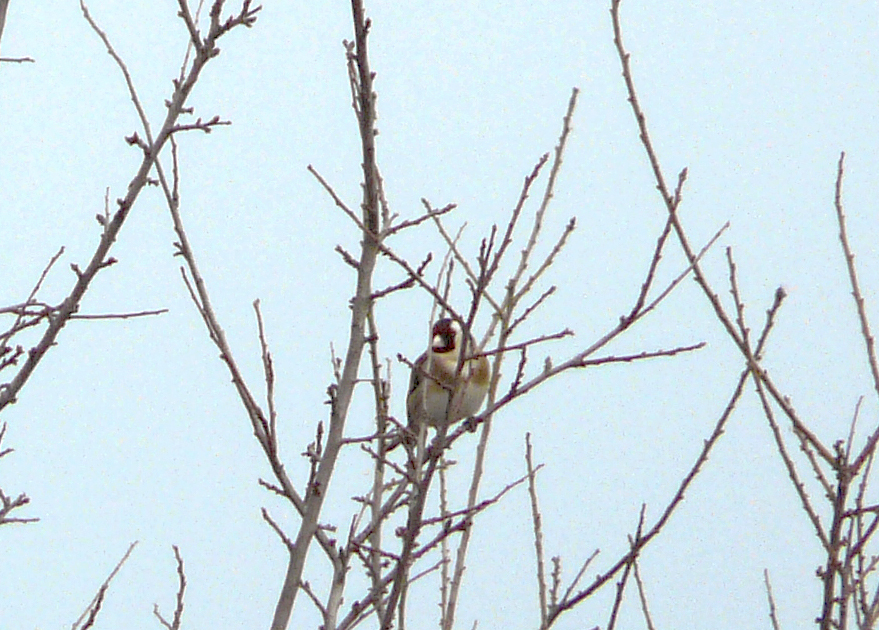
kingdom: Animalia
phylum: Chordata
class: Aves
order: Passeriformes
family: Fringillidae
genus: Carduelis
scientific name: Carduelis carduelis
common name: European goldfinch
